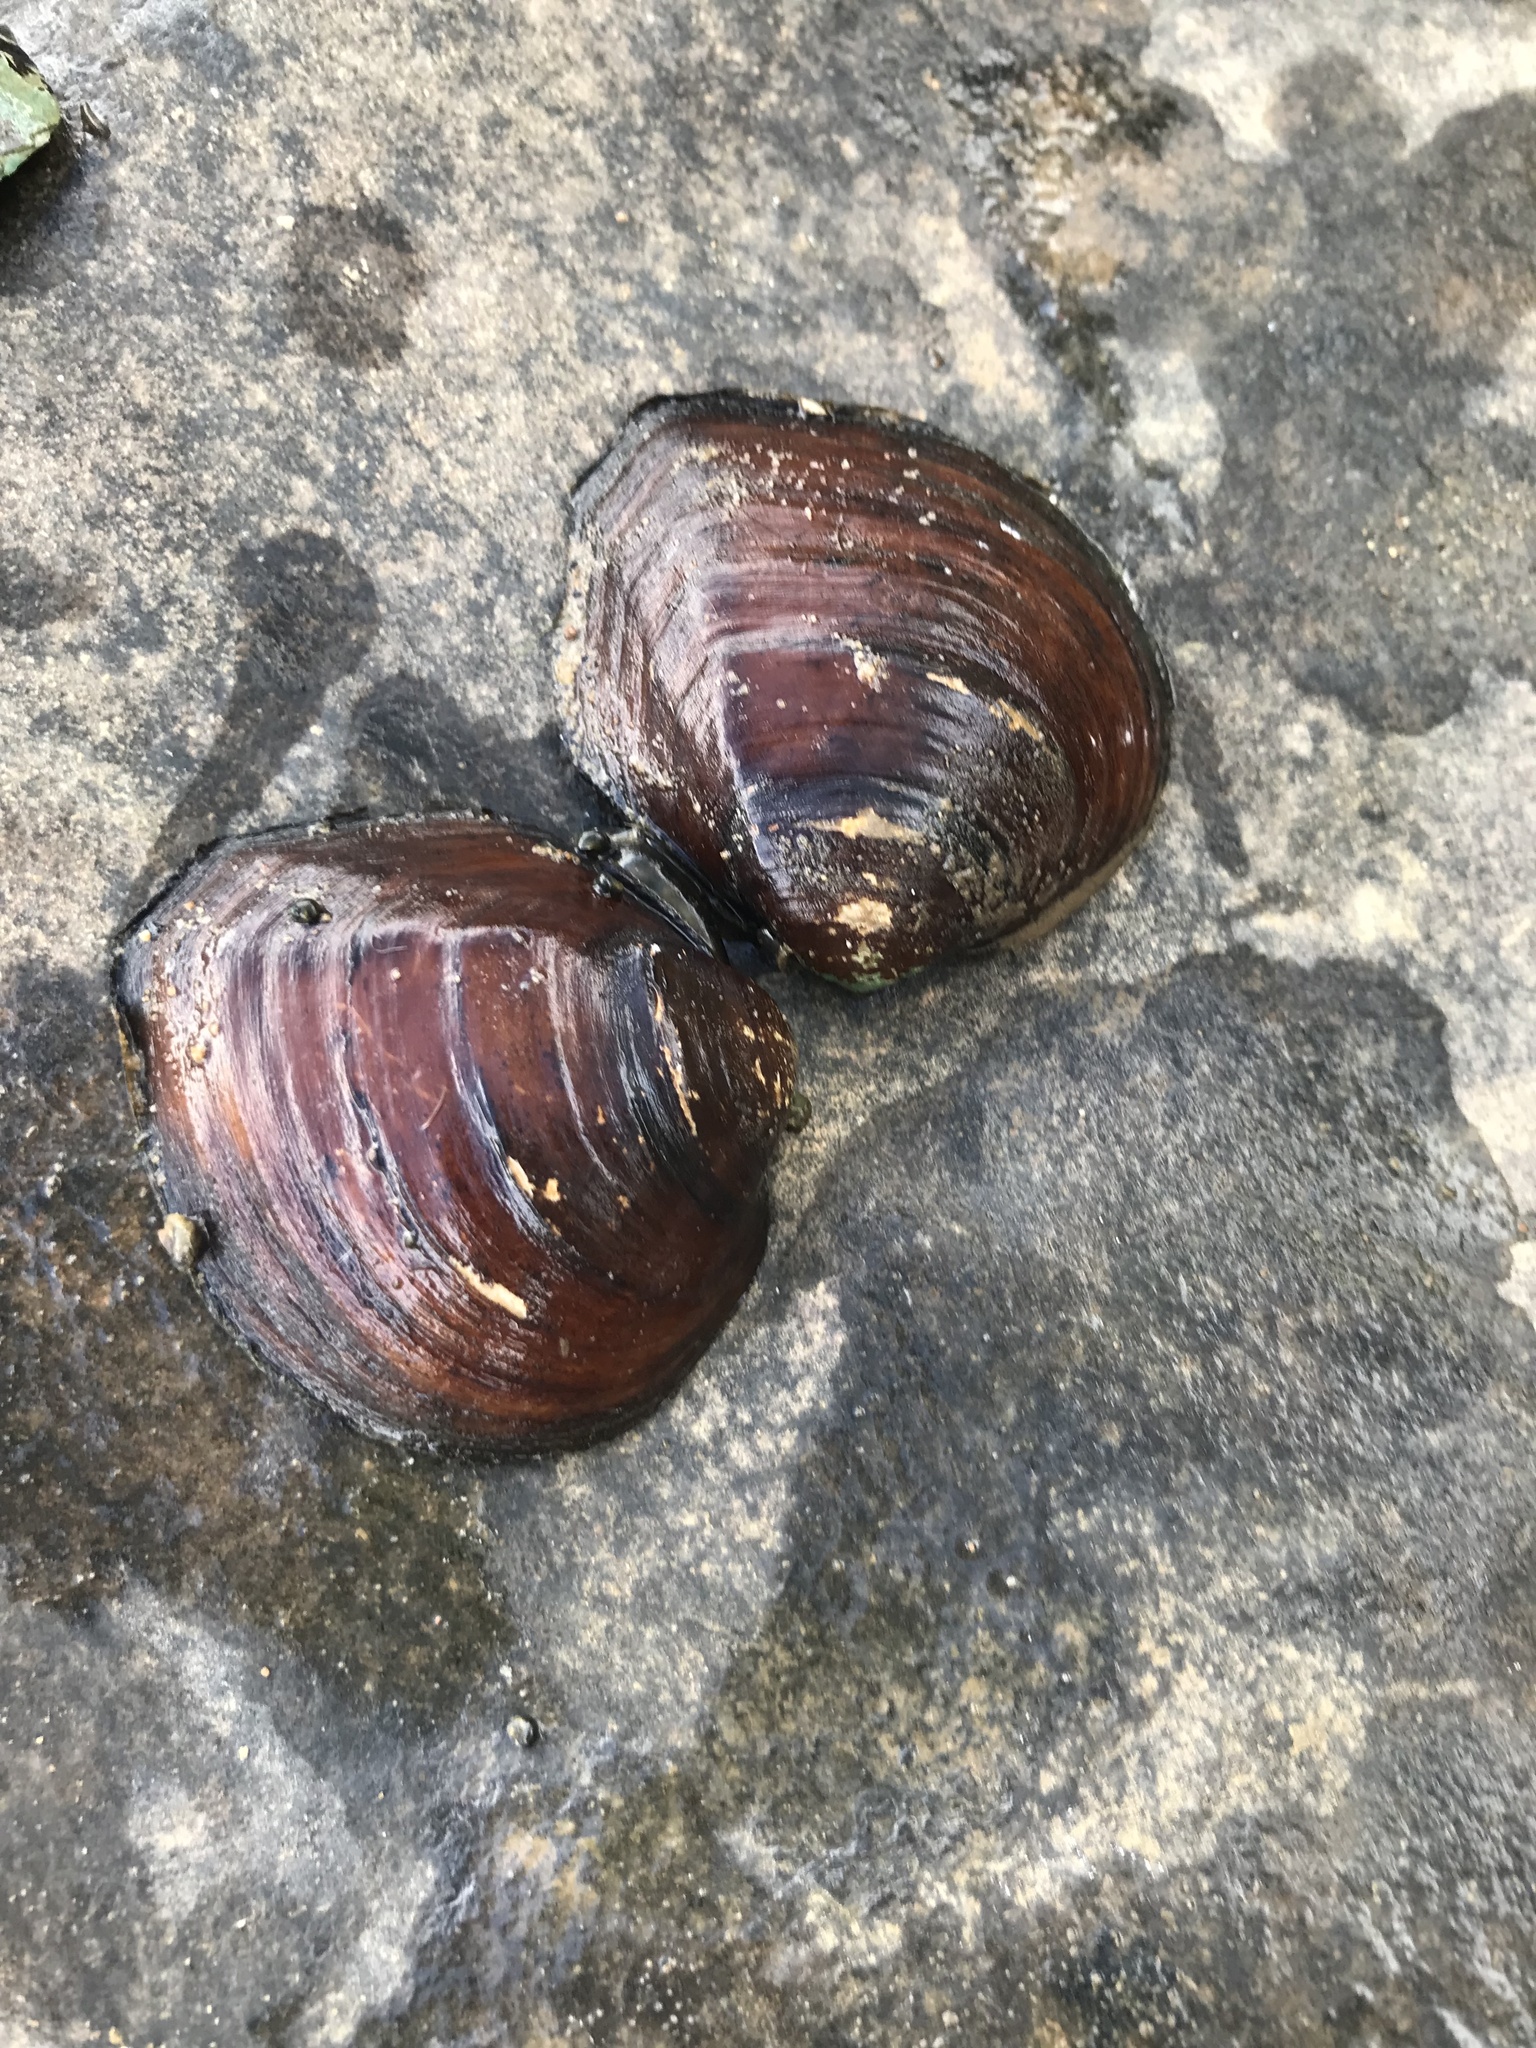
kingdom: Animalia
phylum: Mollusca
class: Bivalvia
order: Unionida
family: Unionidae
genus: Fusconaia
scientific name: Fusconaia cerina
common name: Gulf pigtoe
